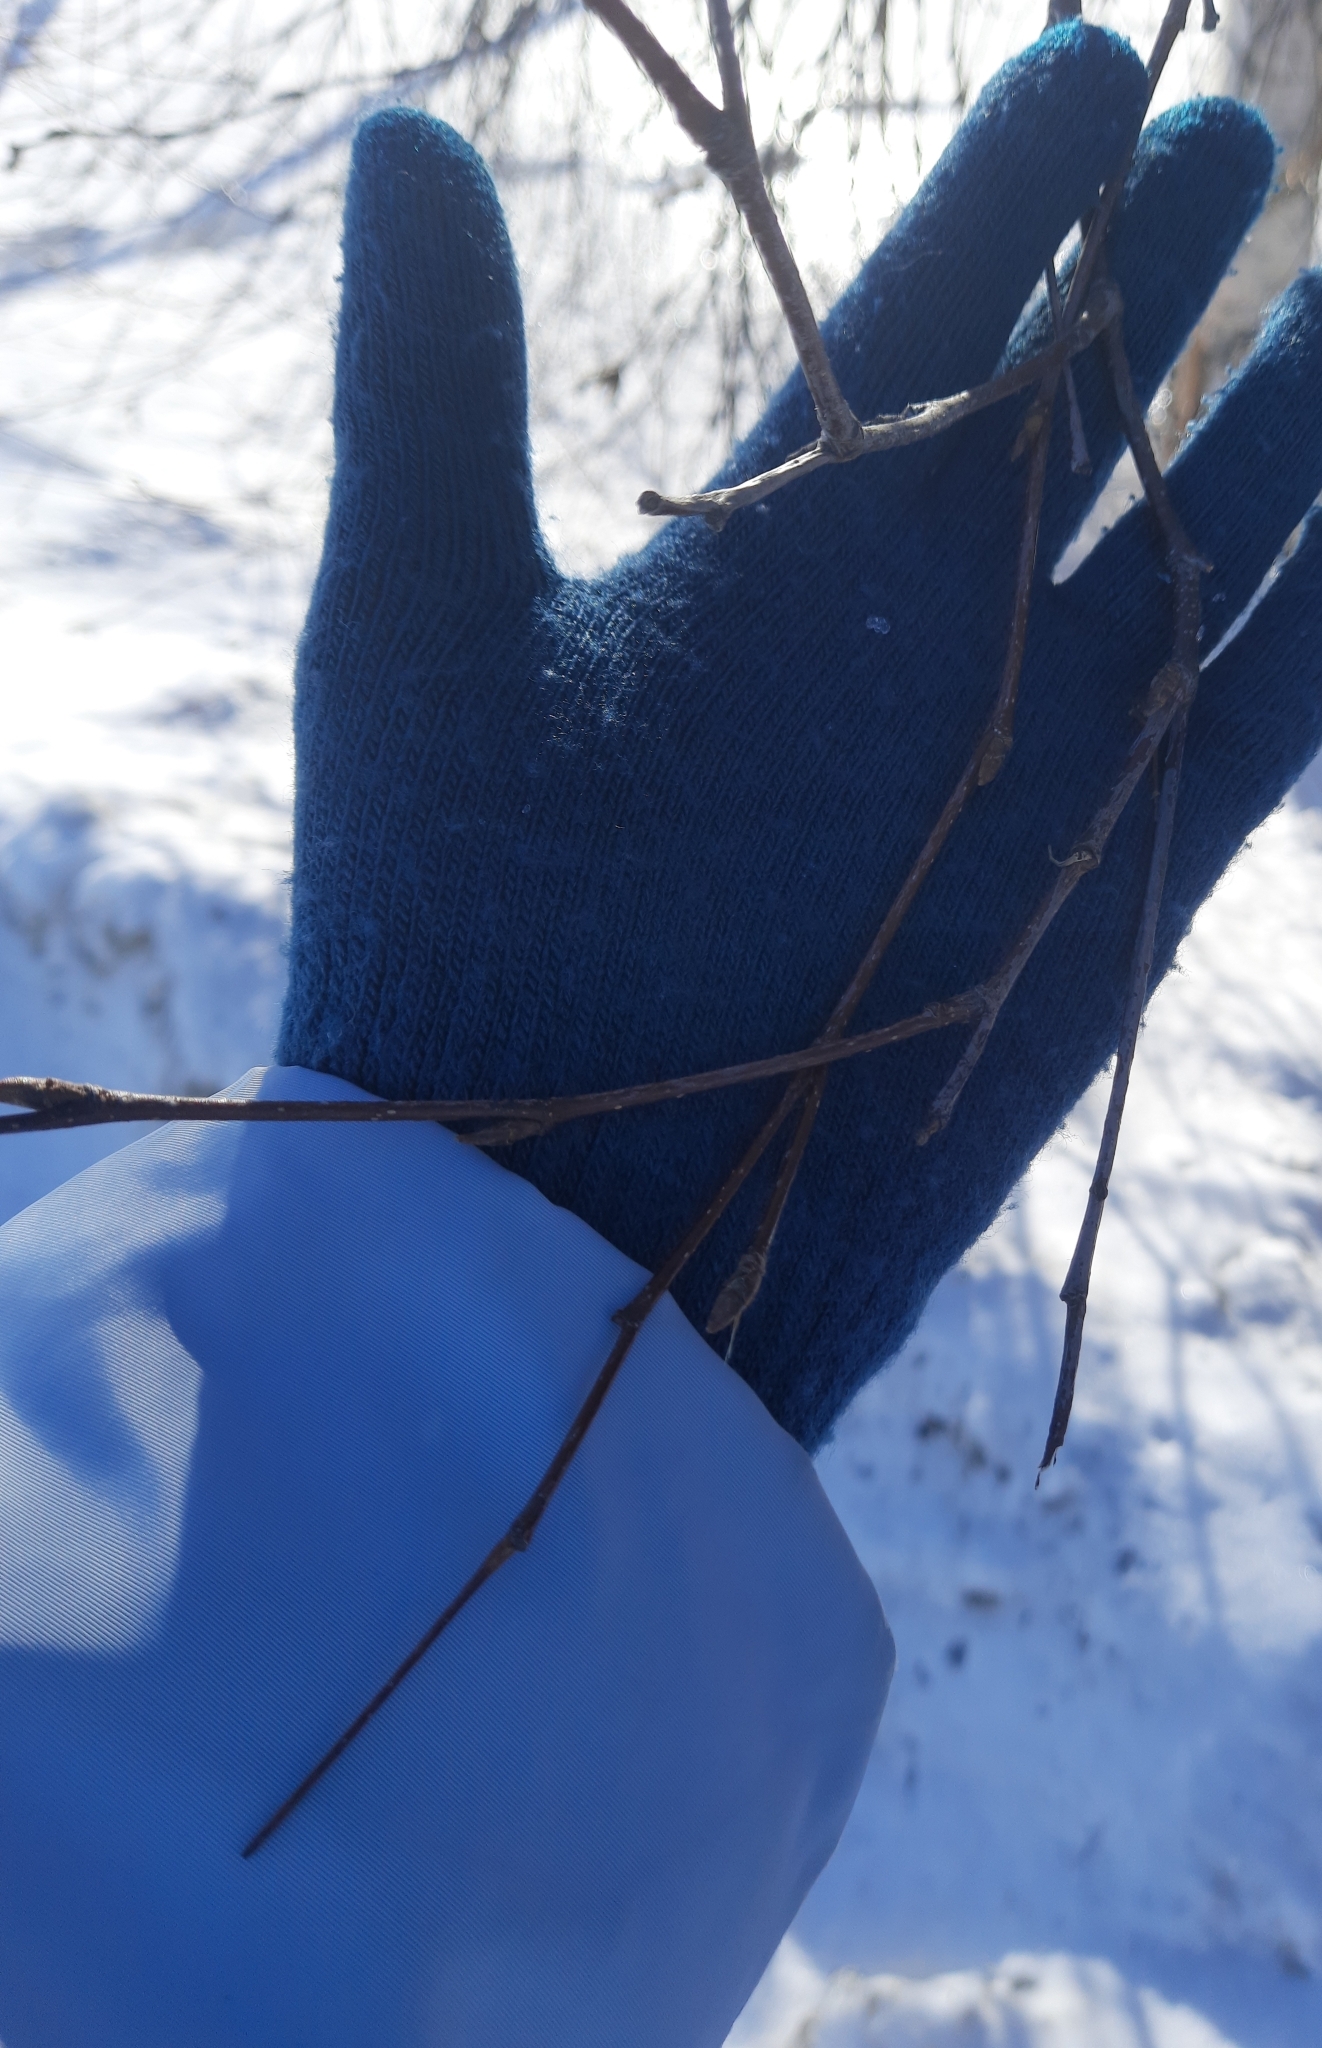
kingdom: Plantae
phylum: Tracheophyta
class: Magnoliopsida
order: Rosales
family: Rosaceae
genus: Prunus
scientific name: Prunus padus
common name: Bird cherry
